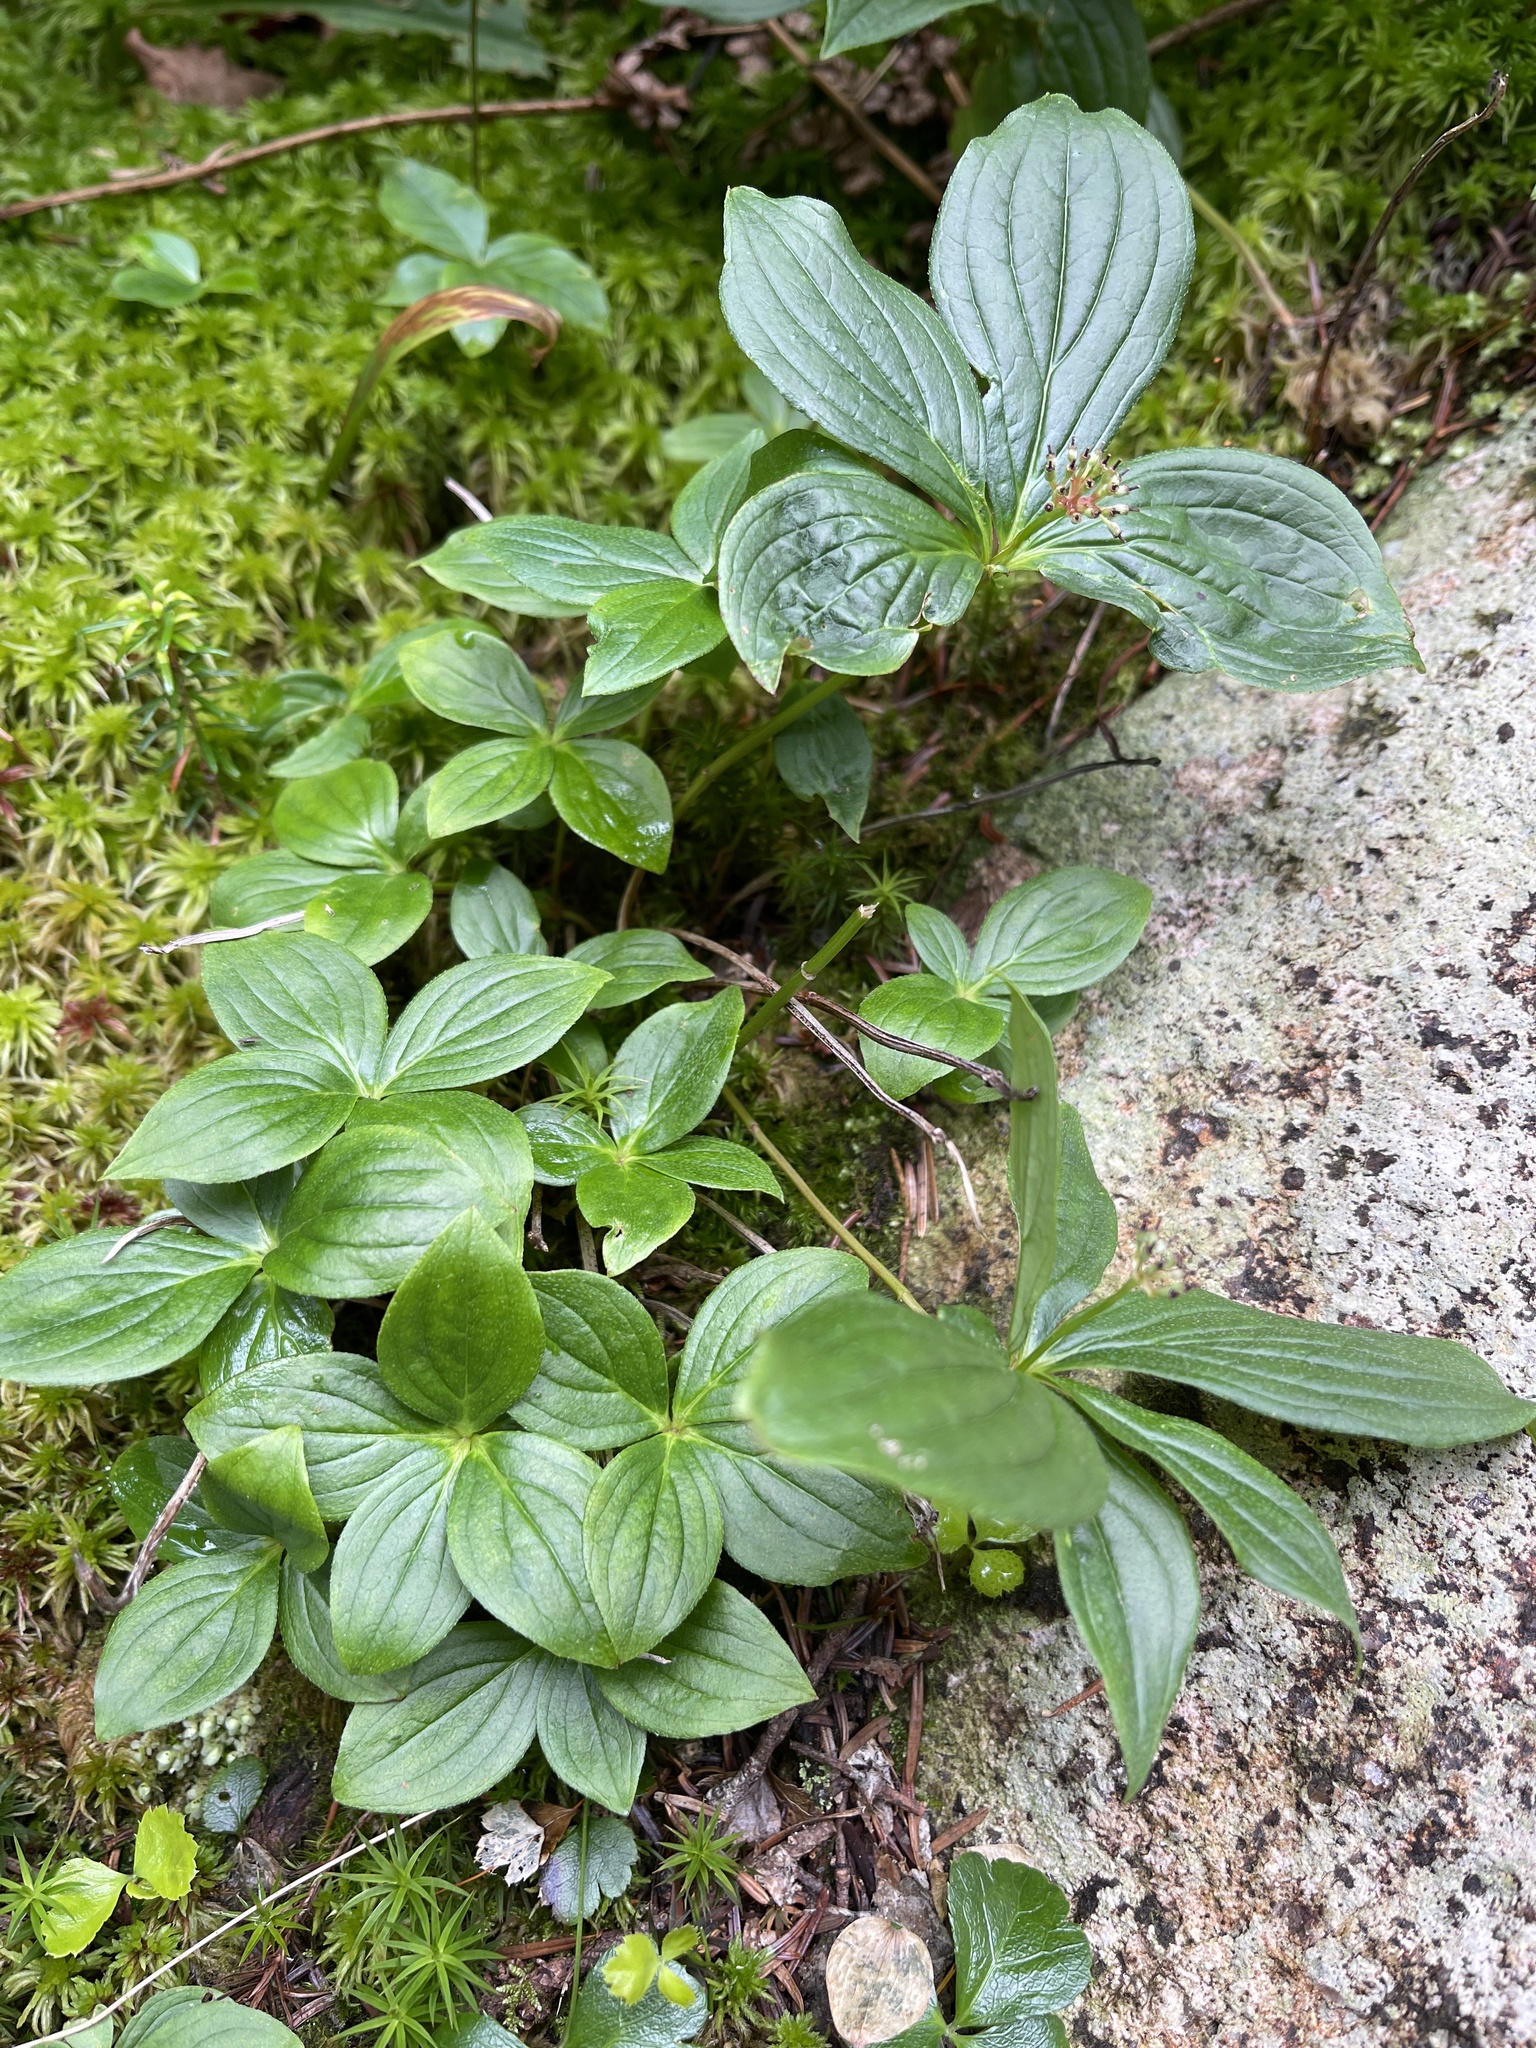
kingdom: Plantae
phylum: Tracheophyta
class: Magnoliopsida
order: Cornales
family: Cornaceae
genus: Cornus
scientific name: Cornus canadensis
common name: Creeping dogwood
